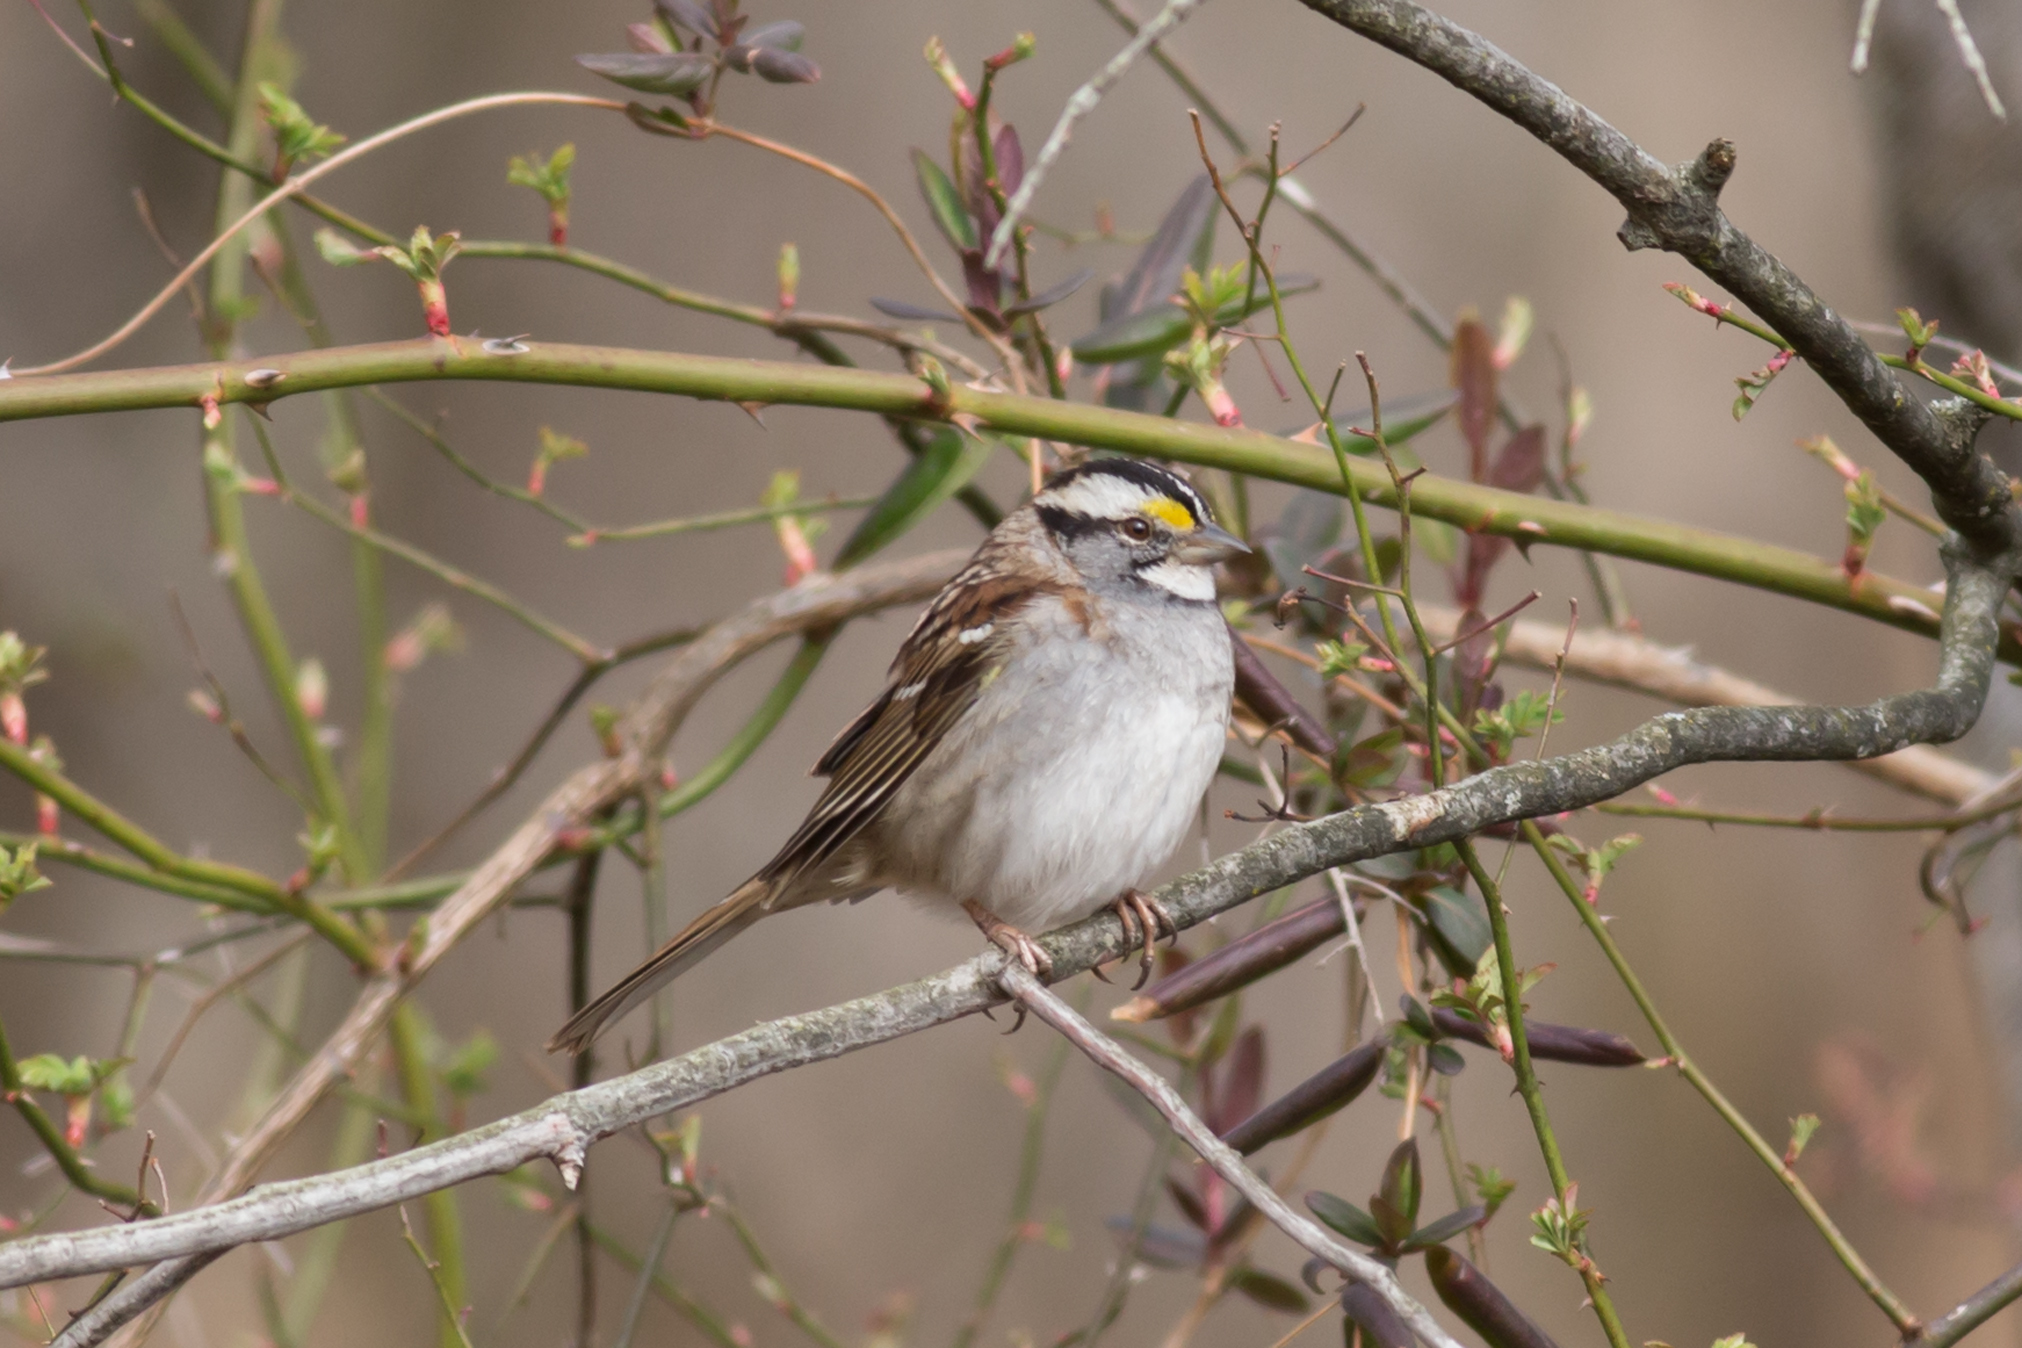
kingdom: Animalia
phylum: Chordata
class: Aves
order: Passeriformes
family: Passerellidae
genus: Zonotrichia
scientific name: Zonotrichia albicollis
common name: White-throated sparrow
